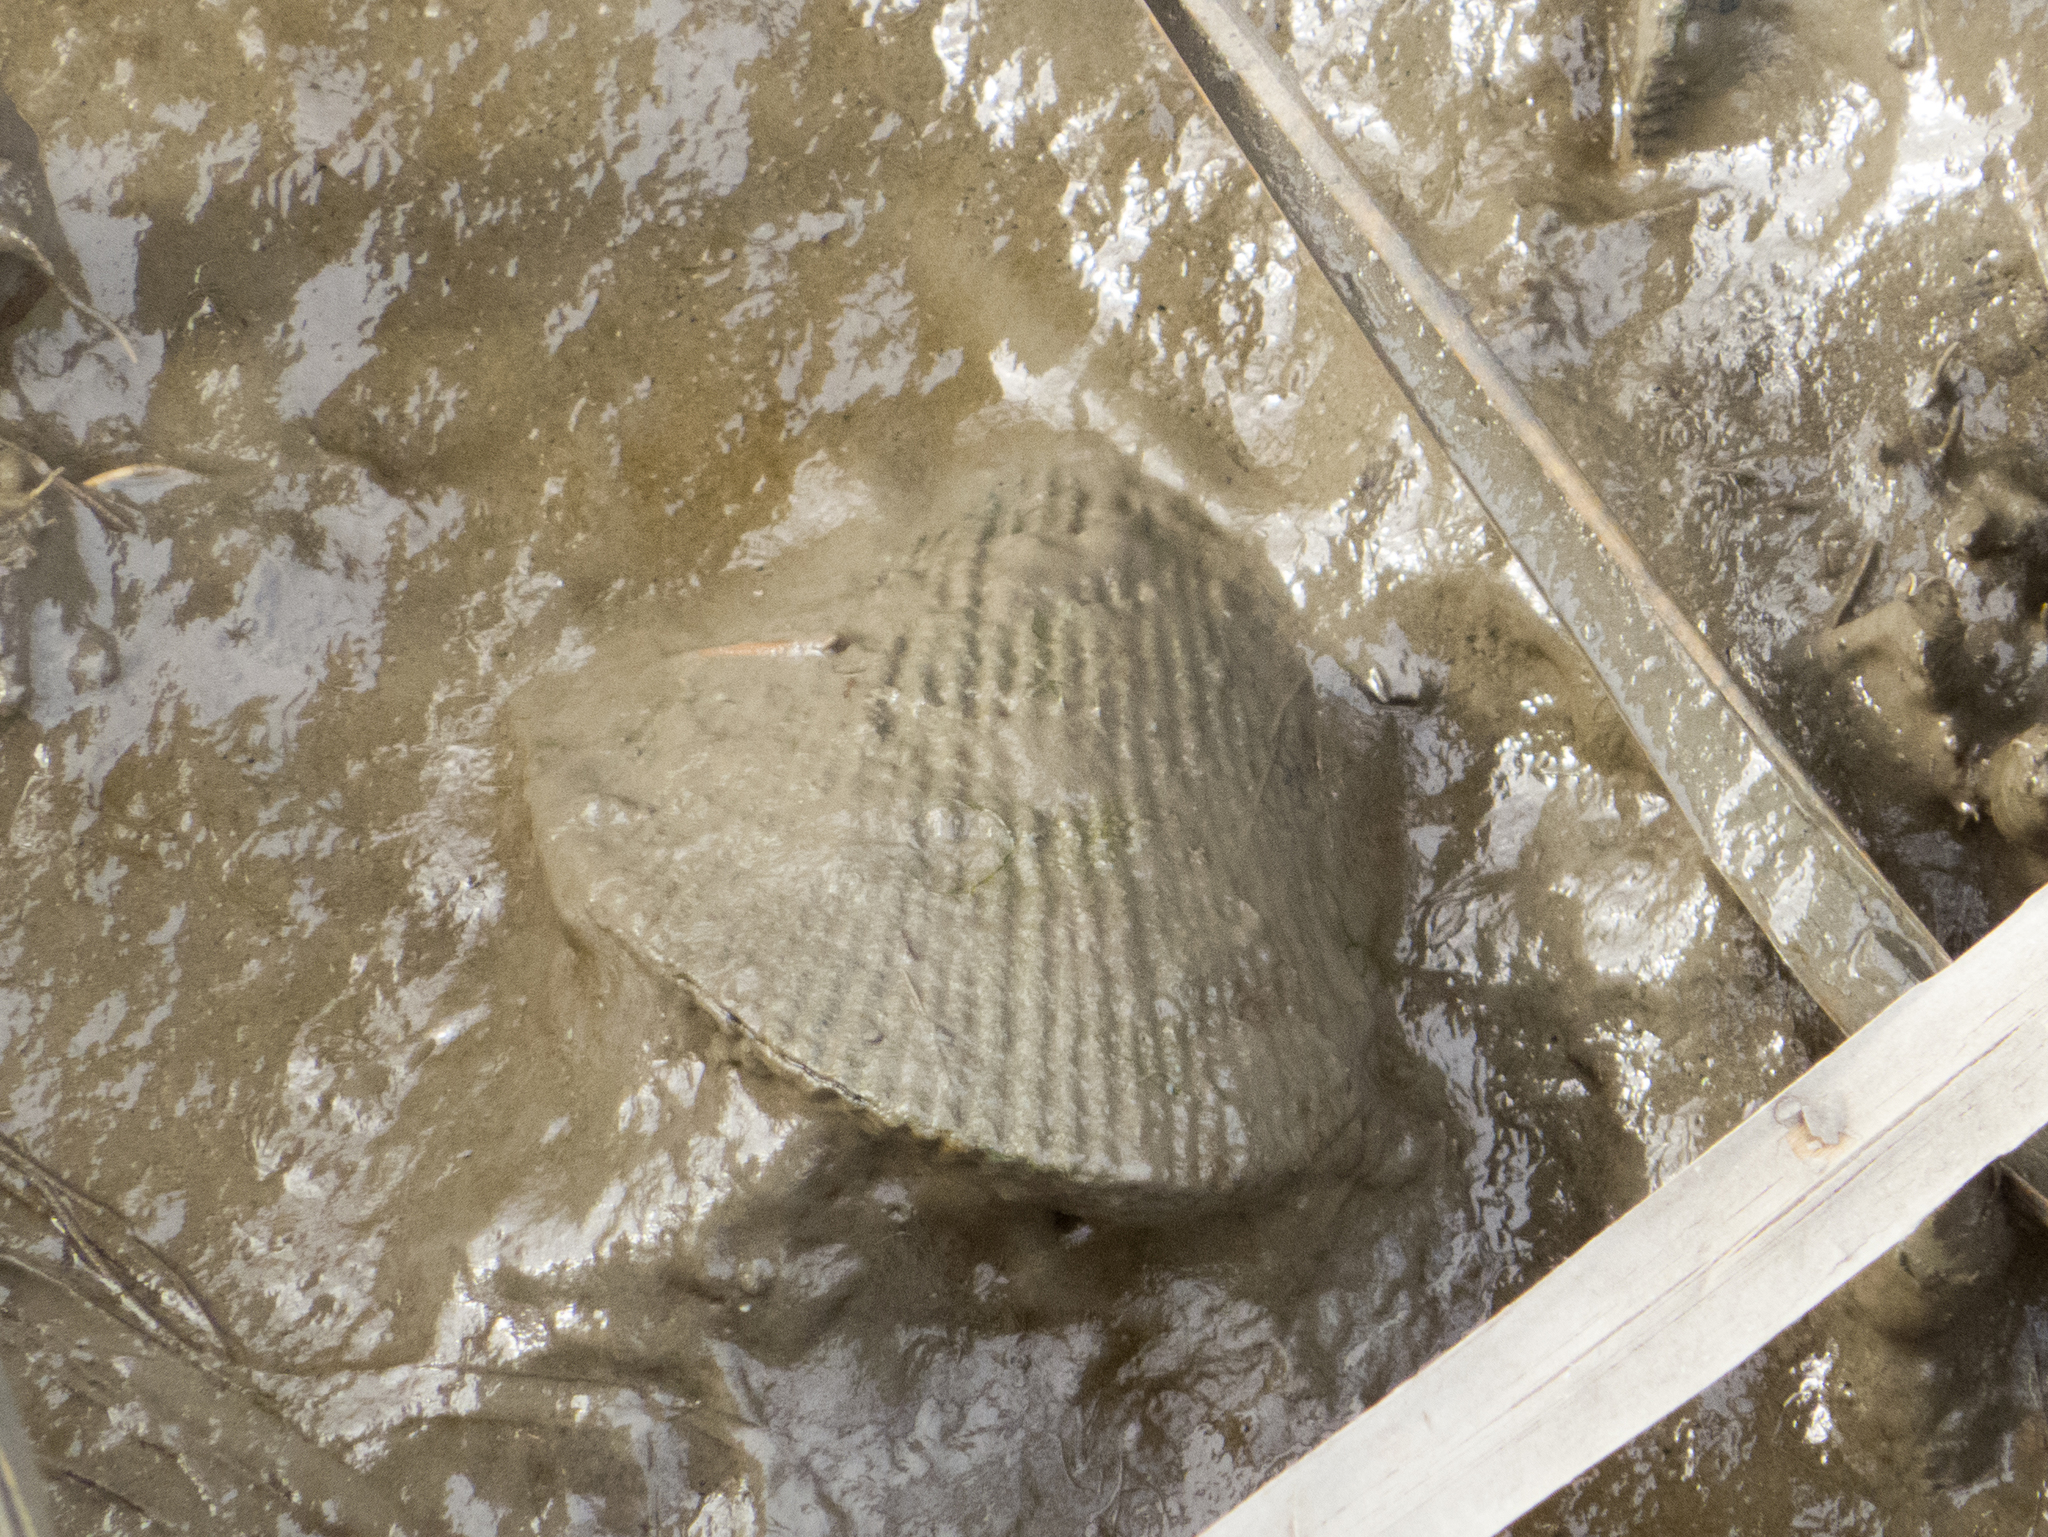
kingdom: Animalia
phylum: Mollusca
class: Bivalvia
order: Mytilida
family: Mytilidae
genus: Geukensia
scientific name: Geukensia demissa
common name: Ribbed mussel
